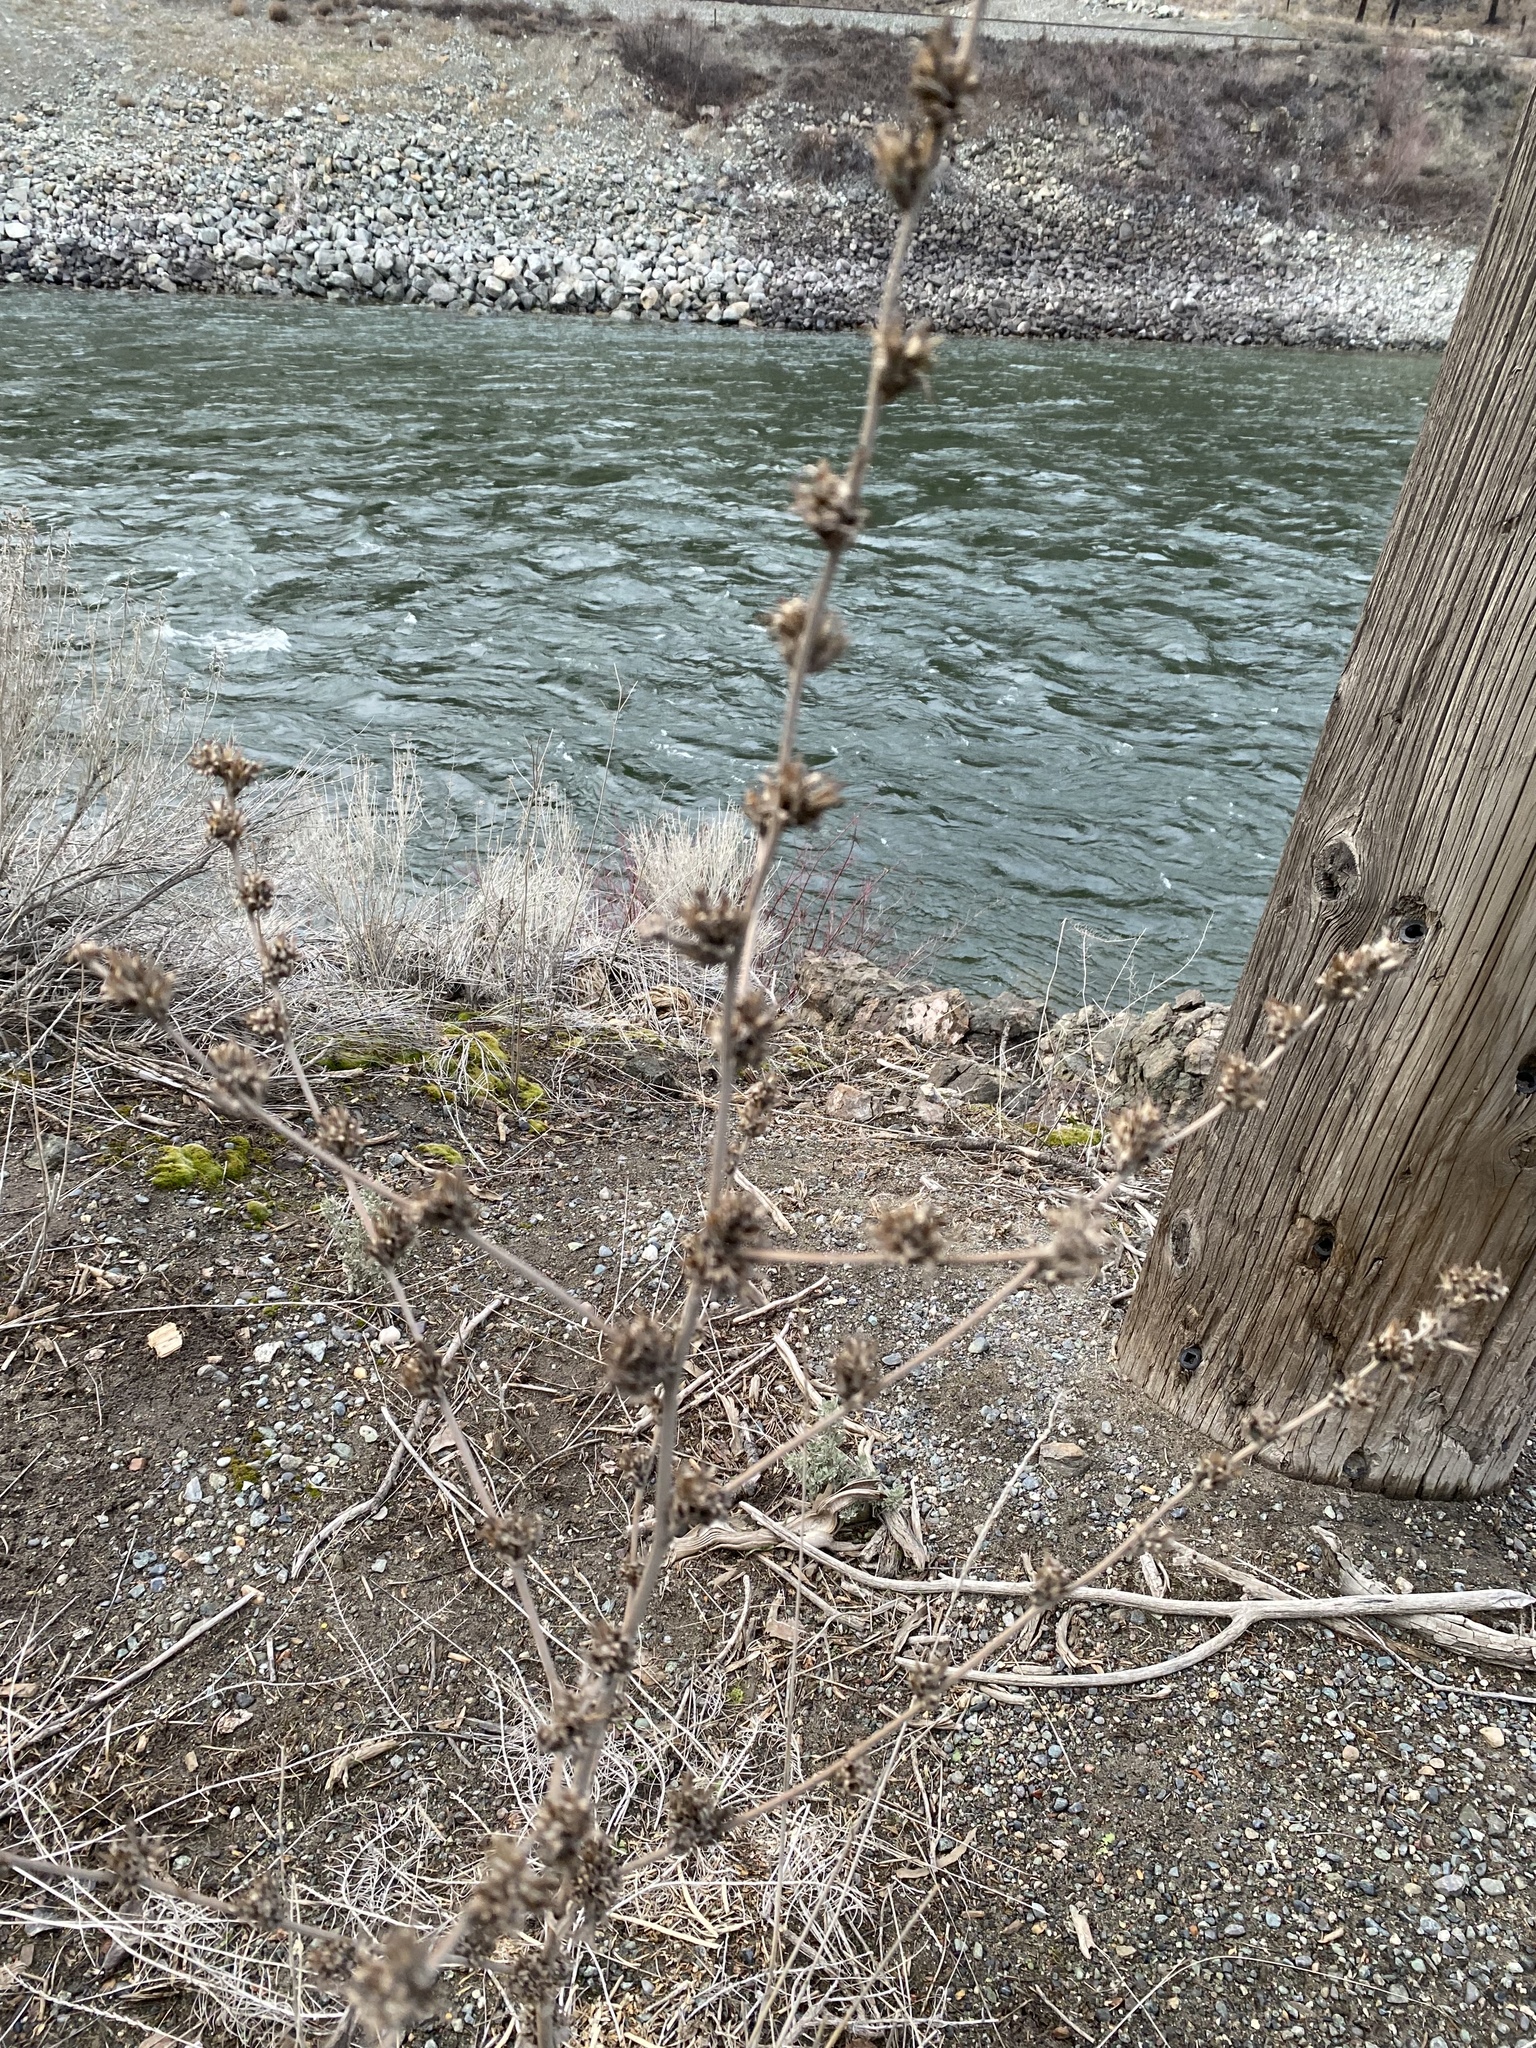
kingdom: Plantae
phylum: Tracheophyta
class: Magnoliopsida
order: Asterales
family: Asteraceae
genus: Cichorium
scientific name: Cichorium intybus
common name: Chicory
